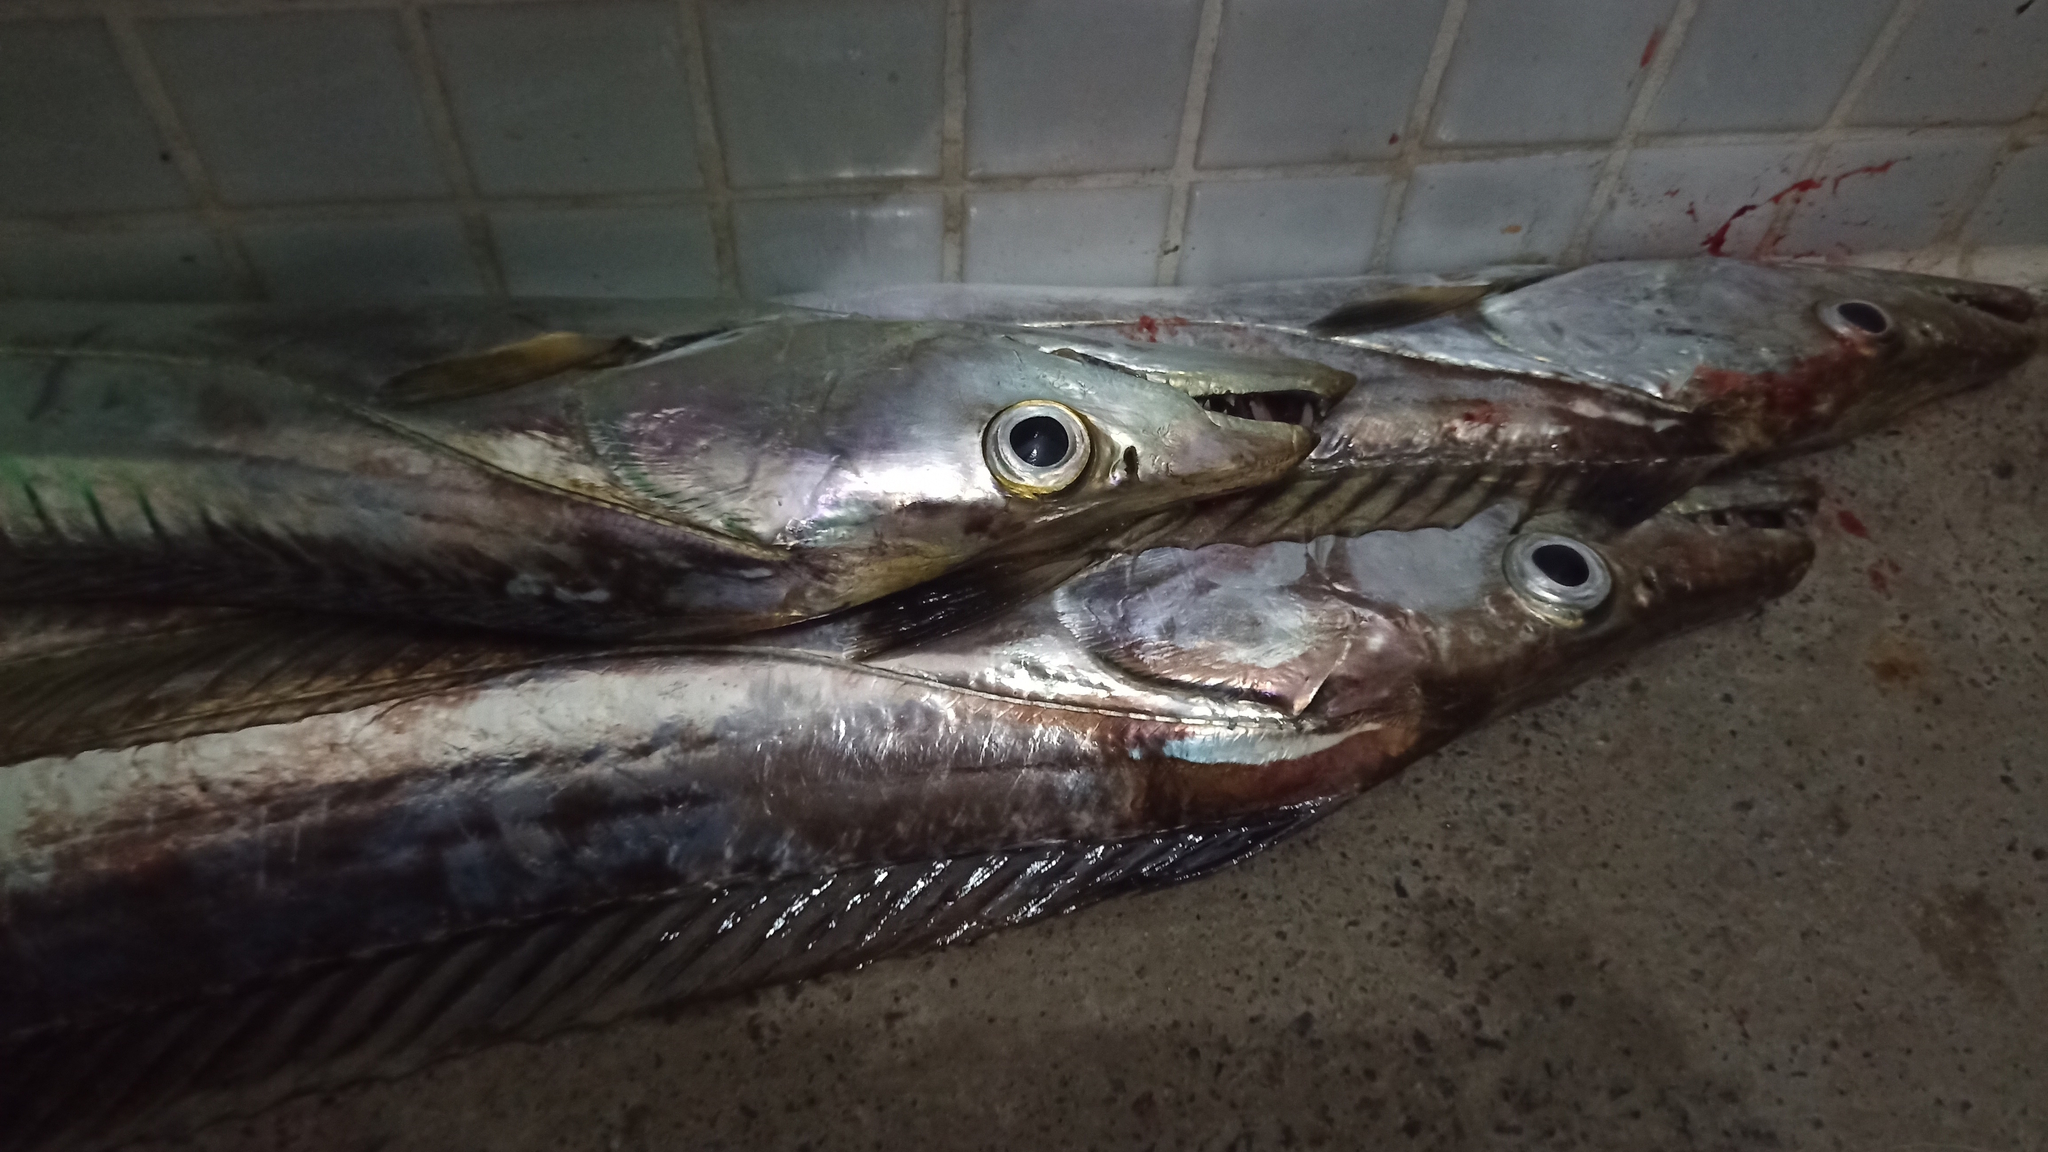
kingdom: Animalia
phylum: Chordata
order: Perciformes
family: Trichiuridae
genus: Trichiurus
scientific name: Trichiurus lepturus
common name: Largehead hairtail
